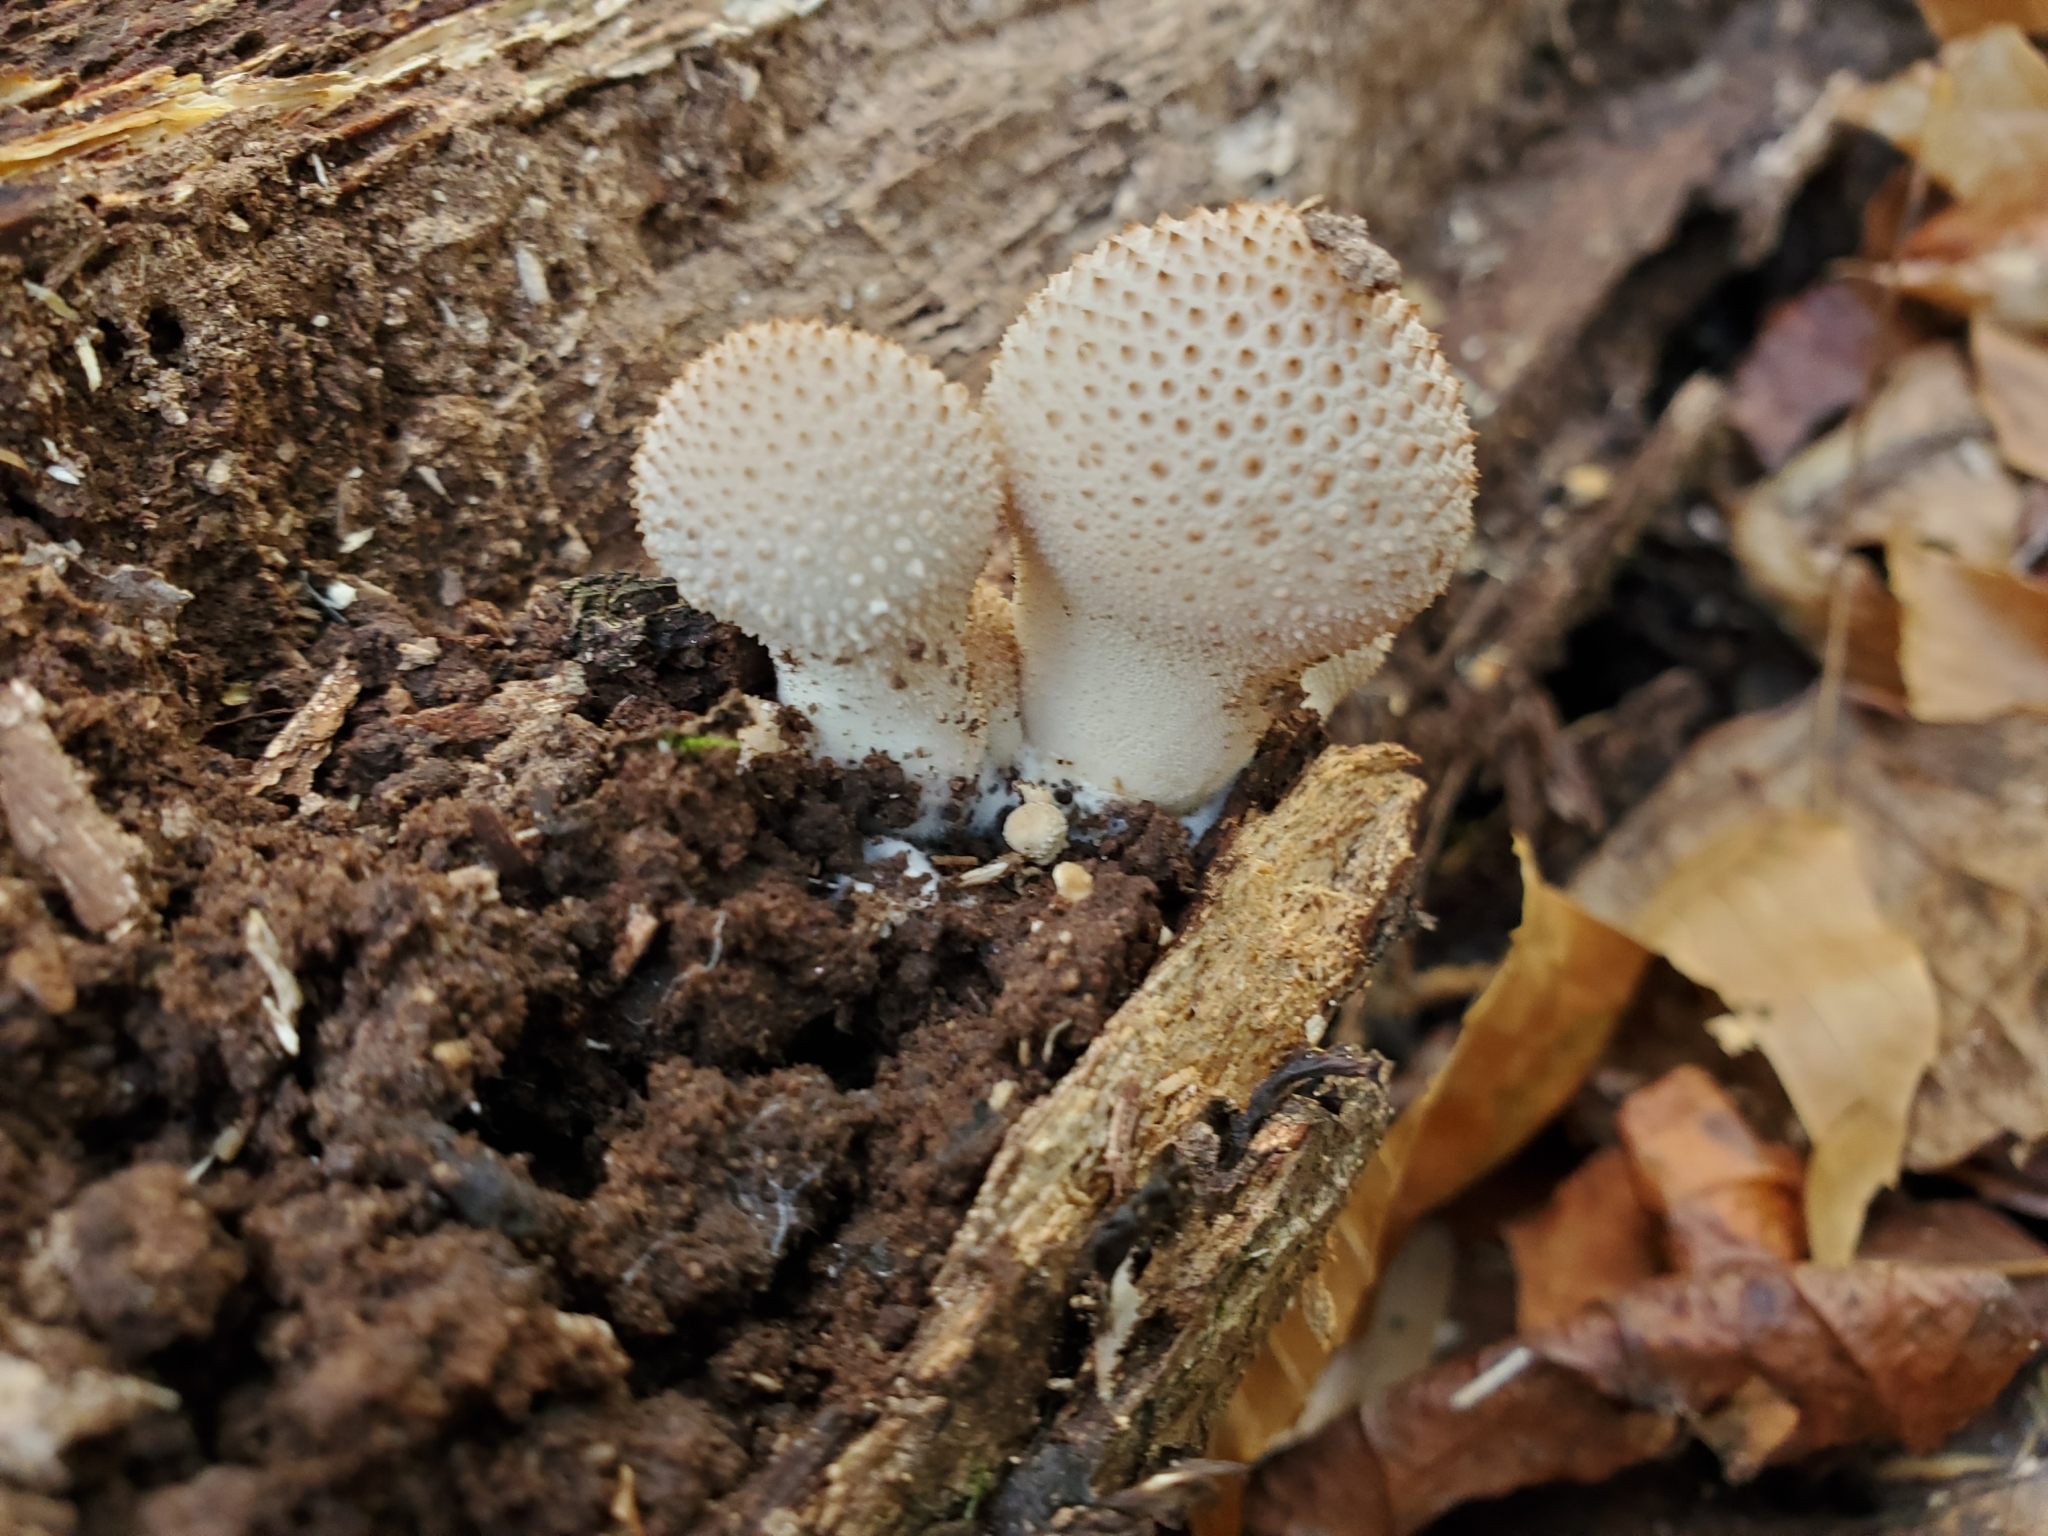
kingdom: Fungi
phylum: Basidiomycota
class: Agaricomycetes
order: Agaricales
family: Lycoperdaceae
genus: Lycoperdon
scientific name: Lycoperdon perlatum
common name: Common puffball
